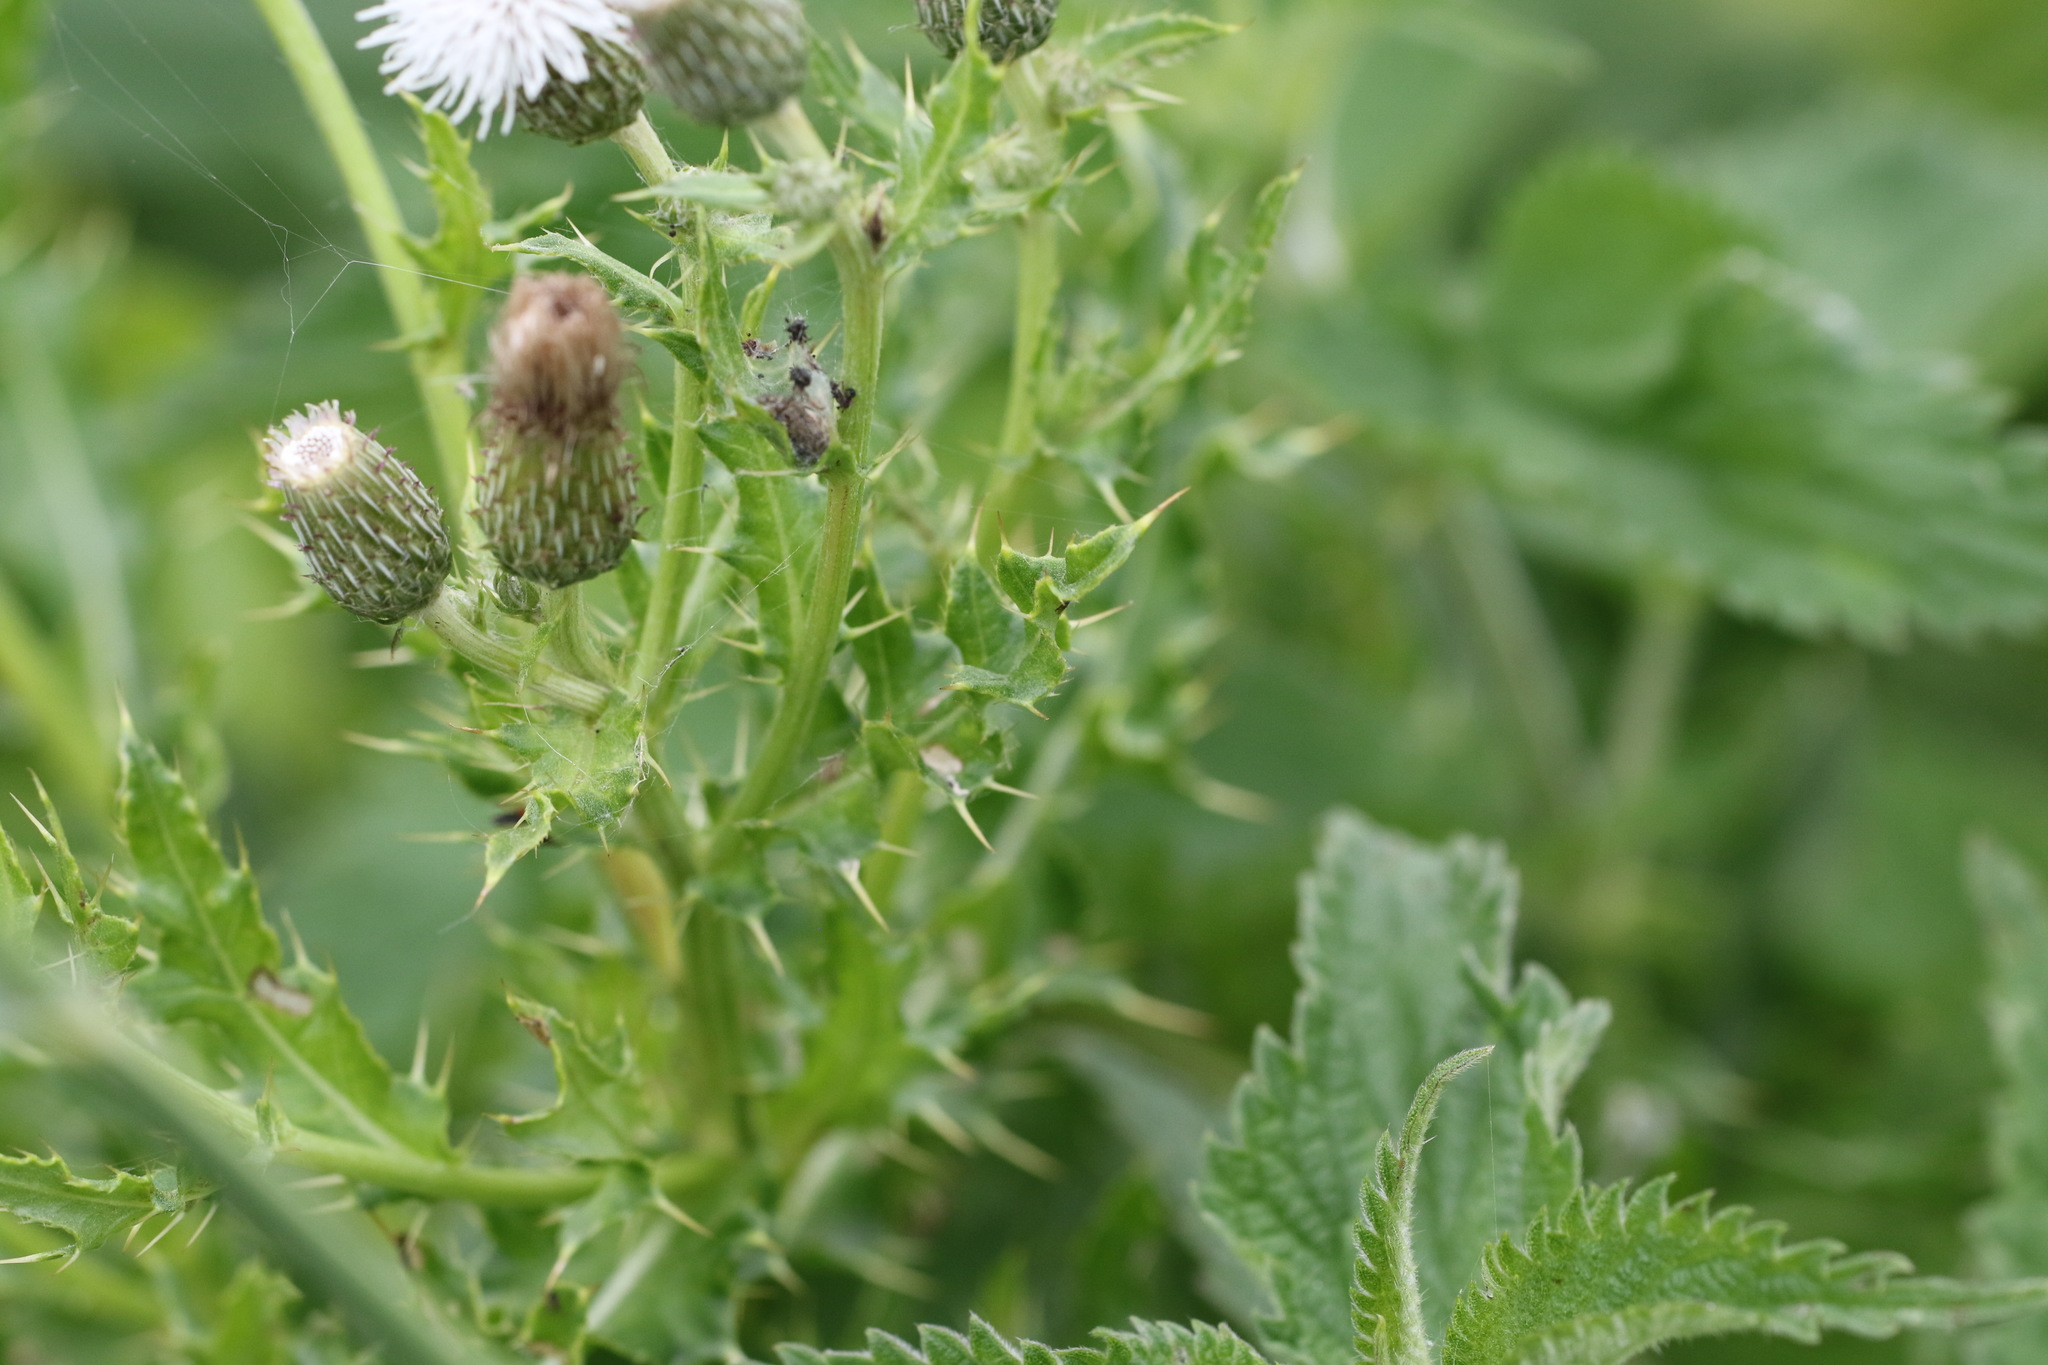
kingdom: Plantae
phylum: Tracheophyta
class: Magnoliopsida
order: Asterales
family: Asteraceae
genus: Cirsium
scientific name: Cirsium arvense
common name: Creeping thistle
